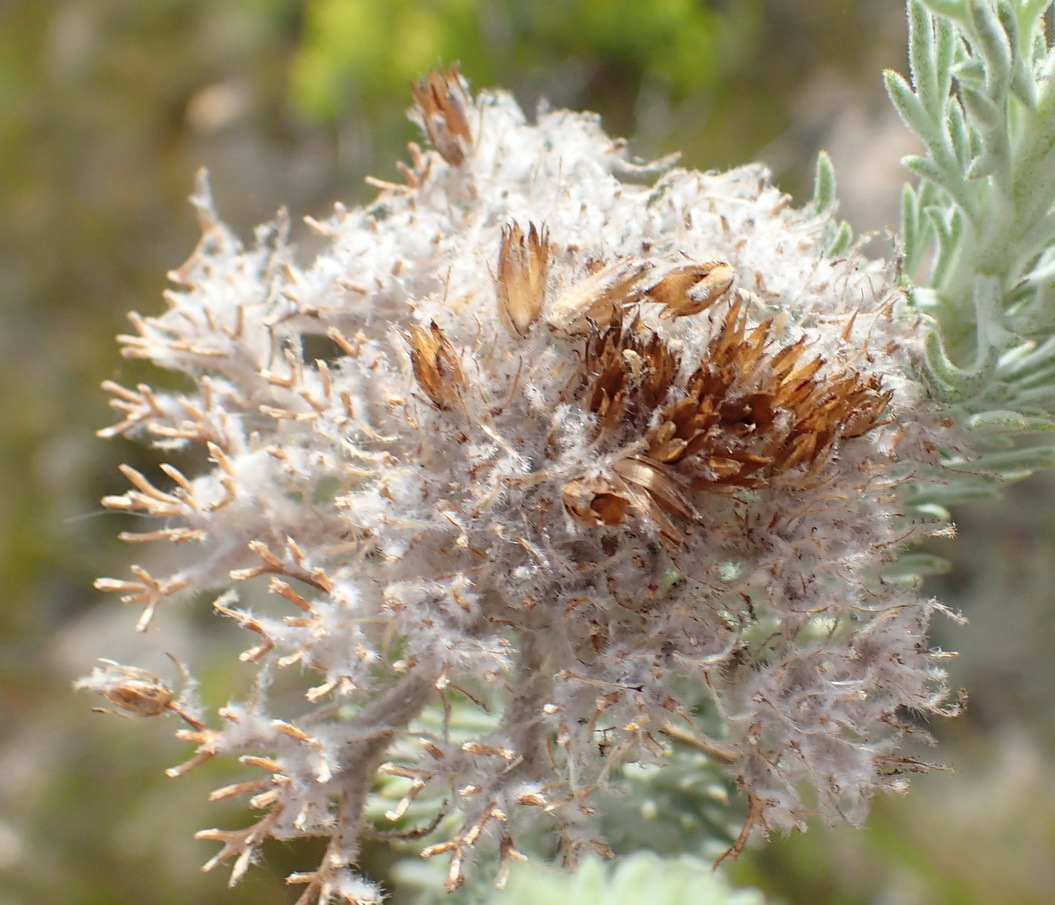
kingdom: Plantae
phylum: Tracheophyta
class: Magnoliopsida
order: Asterales
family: Asteraceae
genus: Athanasia
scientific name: Athanasia pinnata
